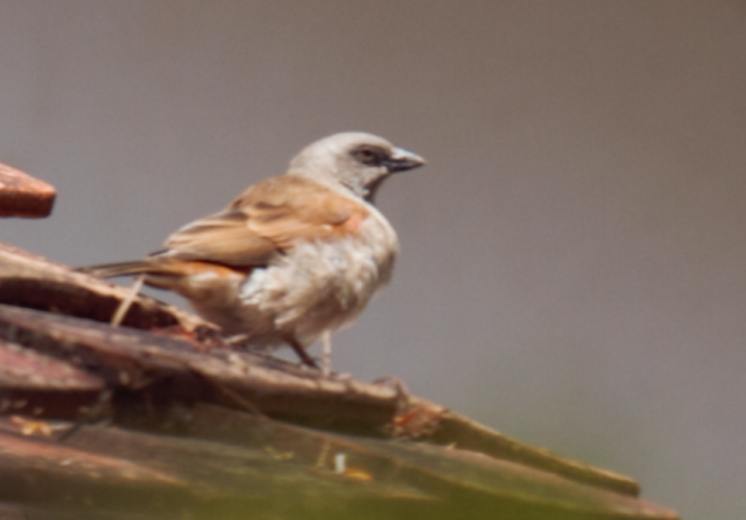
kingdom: Animalia
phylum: Chordata
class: Aves
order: Passeriformes
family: Passeridae
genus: Passer
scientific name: Passer griseus
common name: Northern grey-headed sparrow
